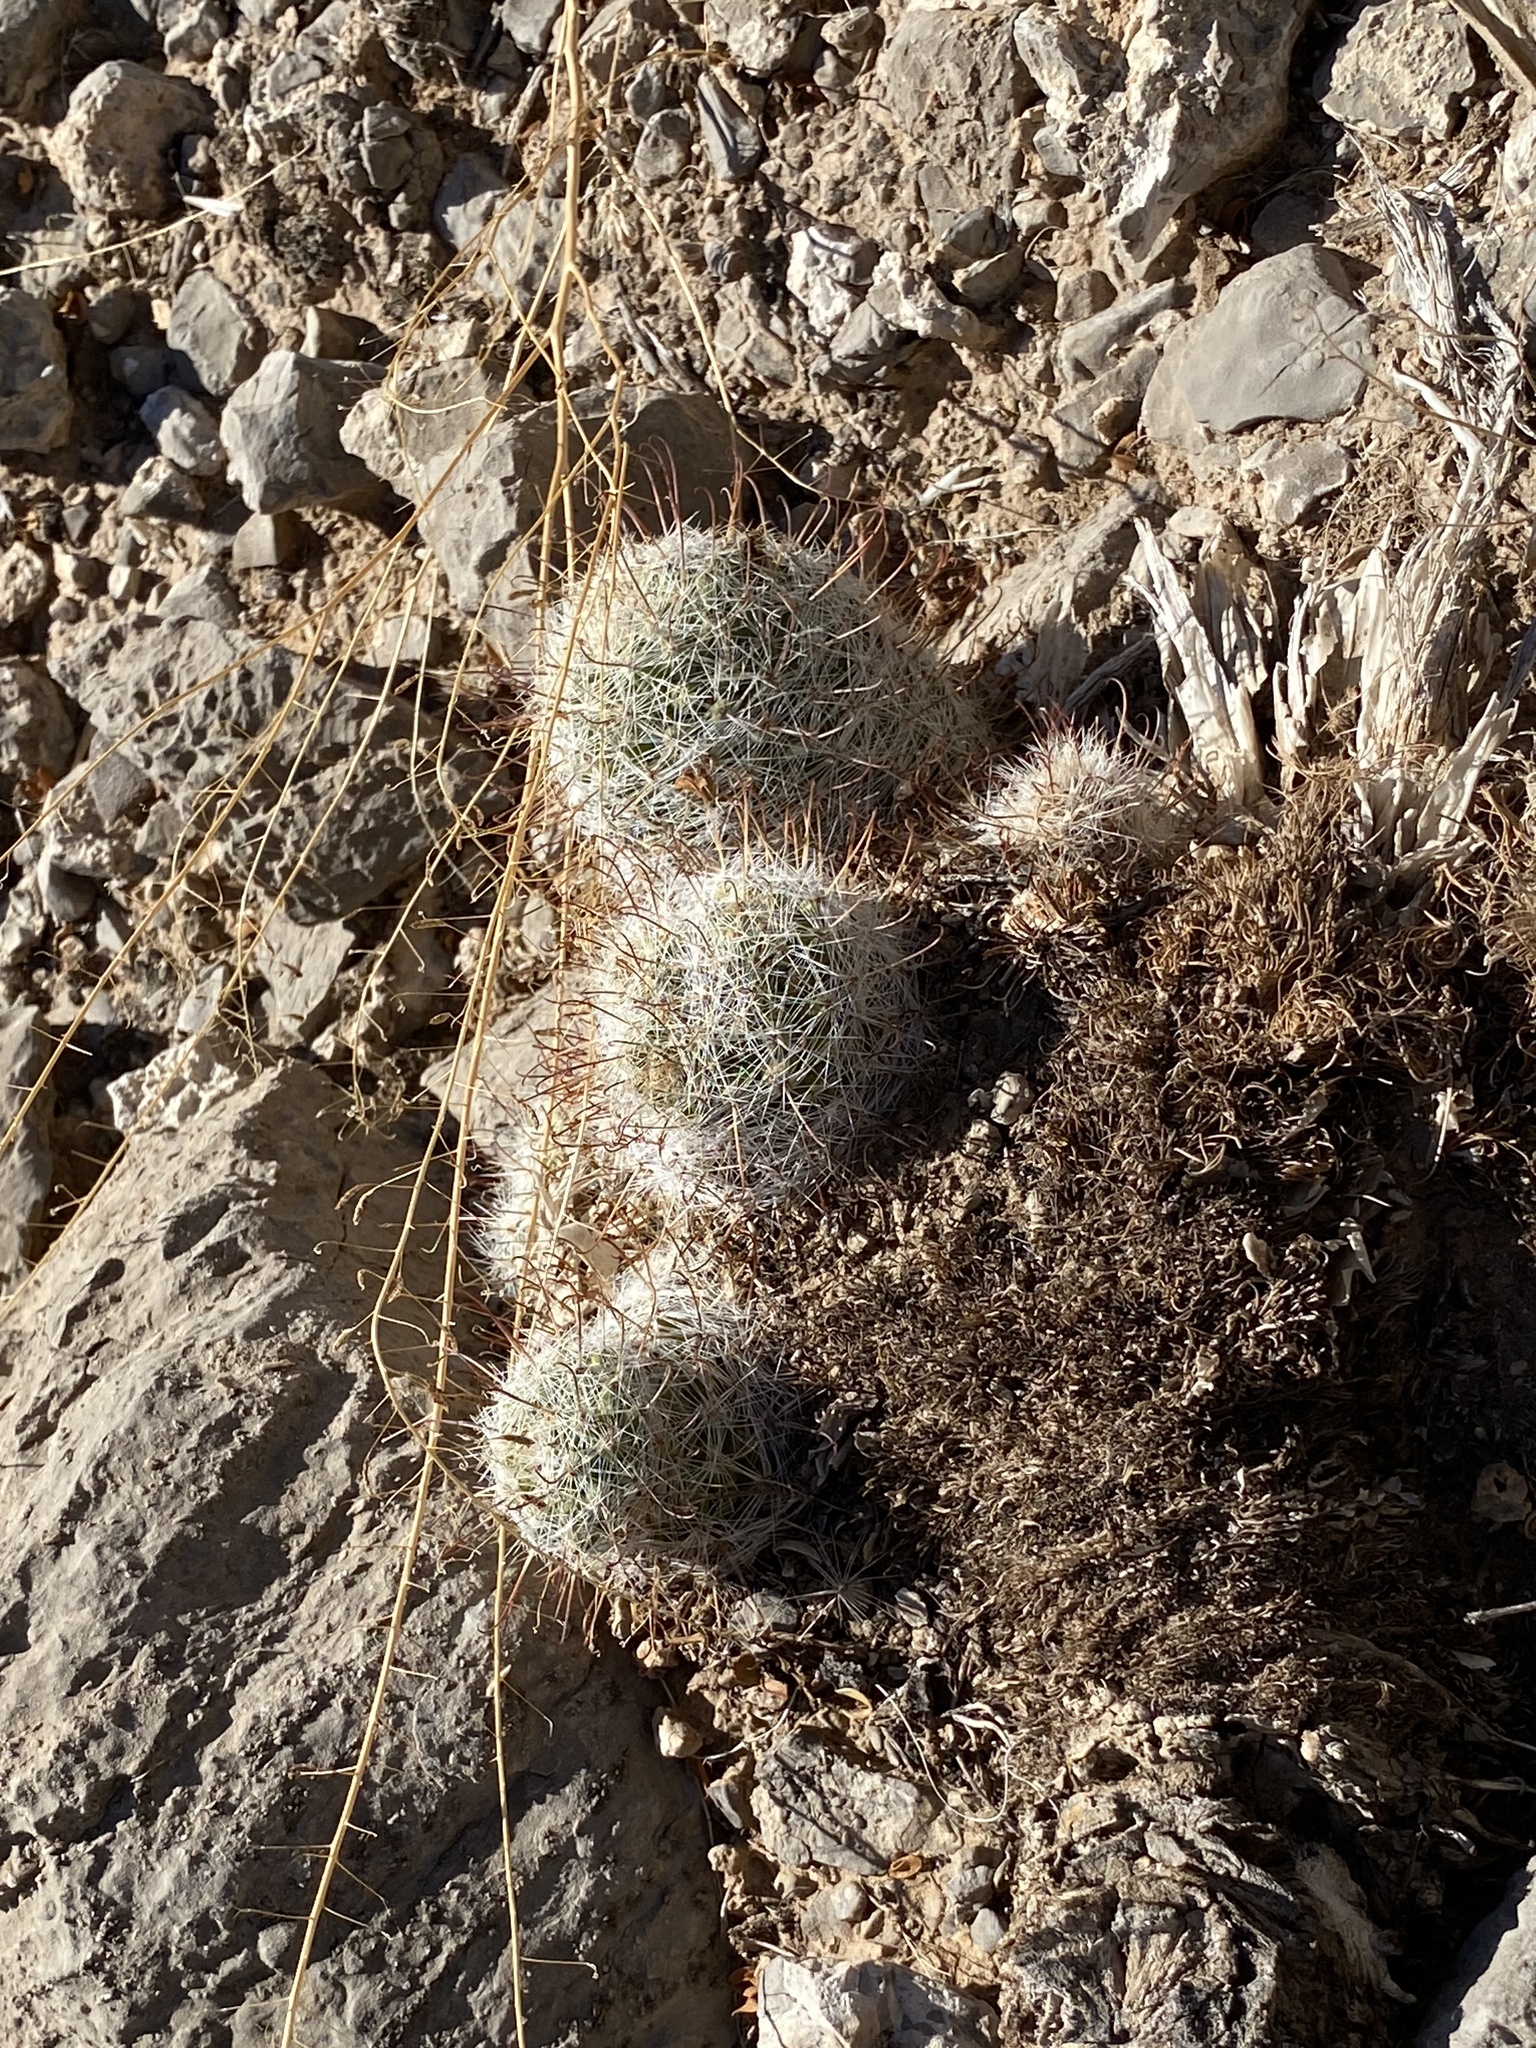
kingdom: Plantae
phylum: Tracheophyta
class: Magnoliopsida
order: Caryophyllales
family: Cactaceae
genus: Cochemiea
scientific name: Cochemiea grahamii
